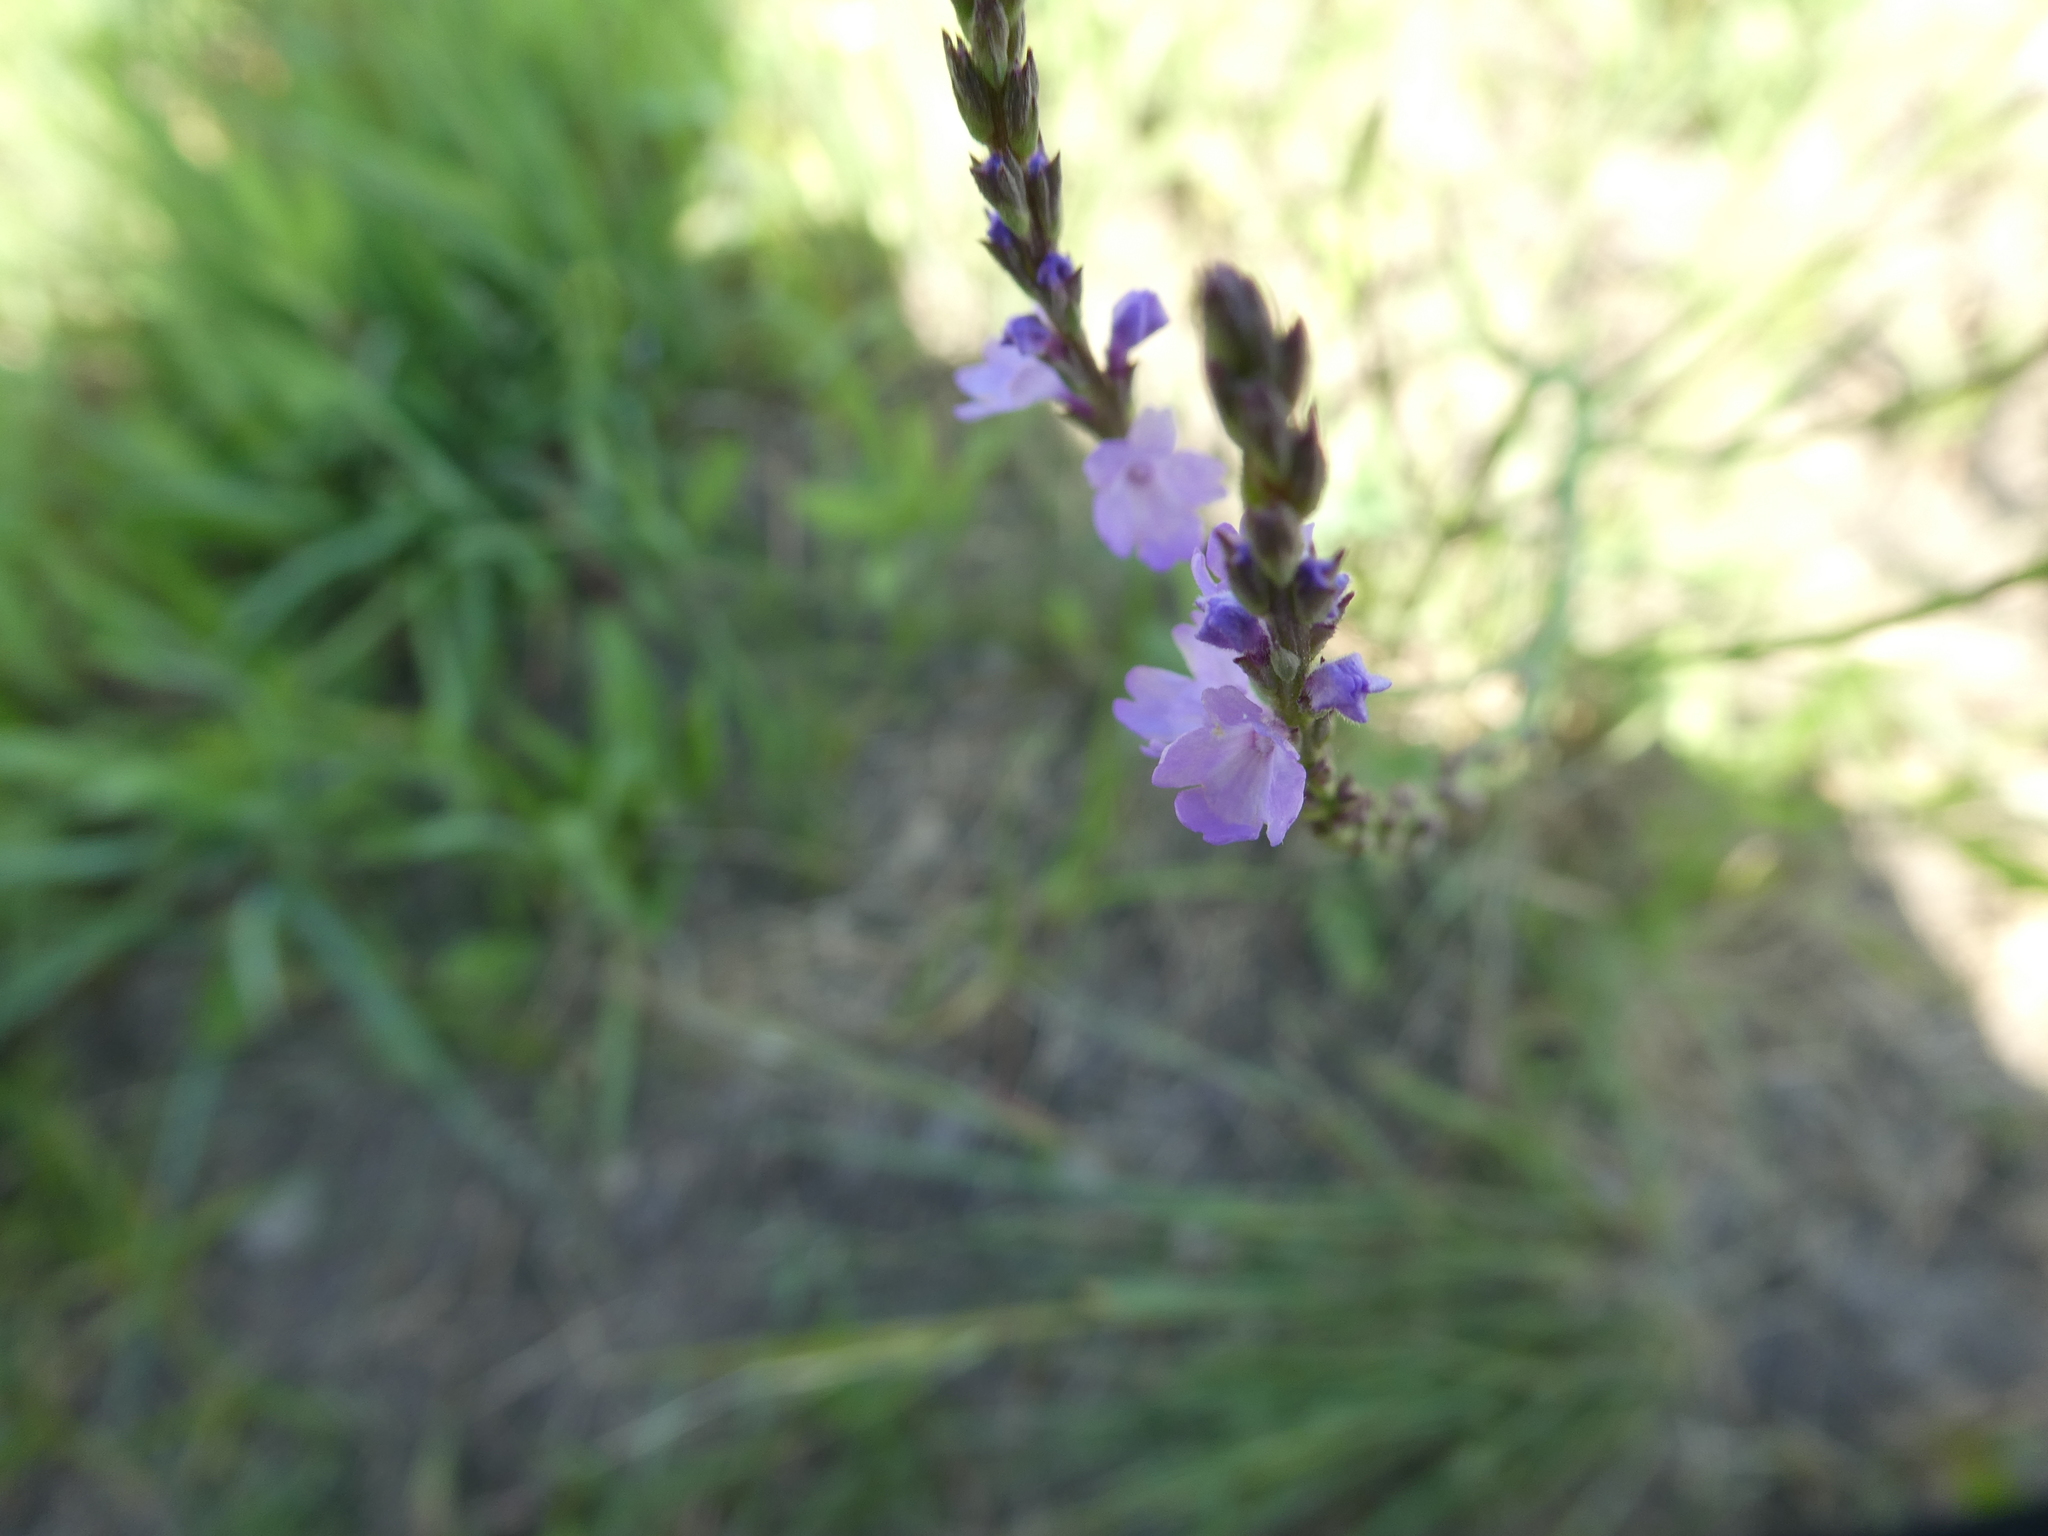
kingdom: Plantae
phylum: Tracheophyta
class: Magnoliopsida
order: Lamiales
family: Verbenaceae
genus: Verbena
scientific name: Verbena halei
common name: Texas vervain
